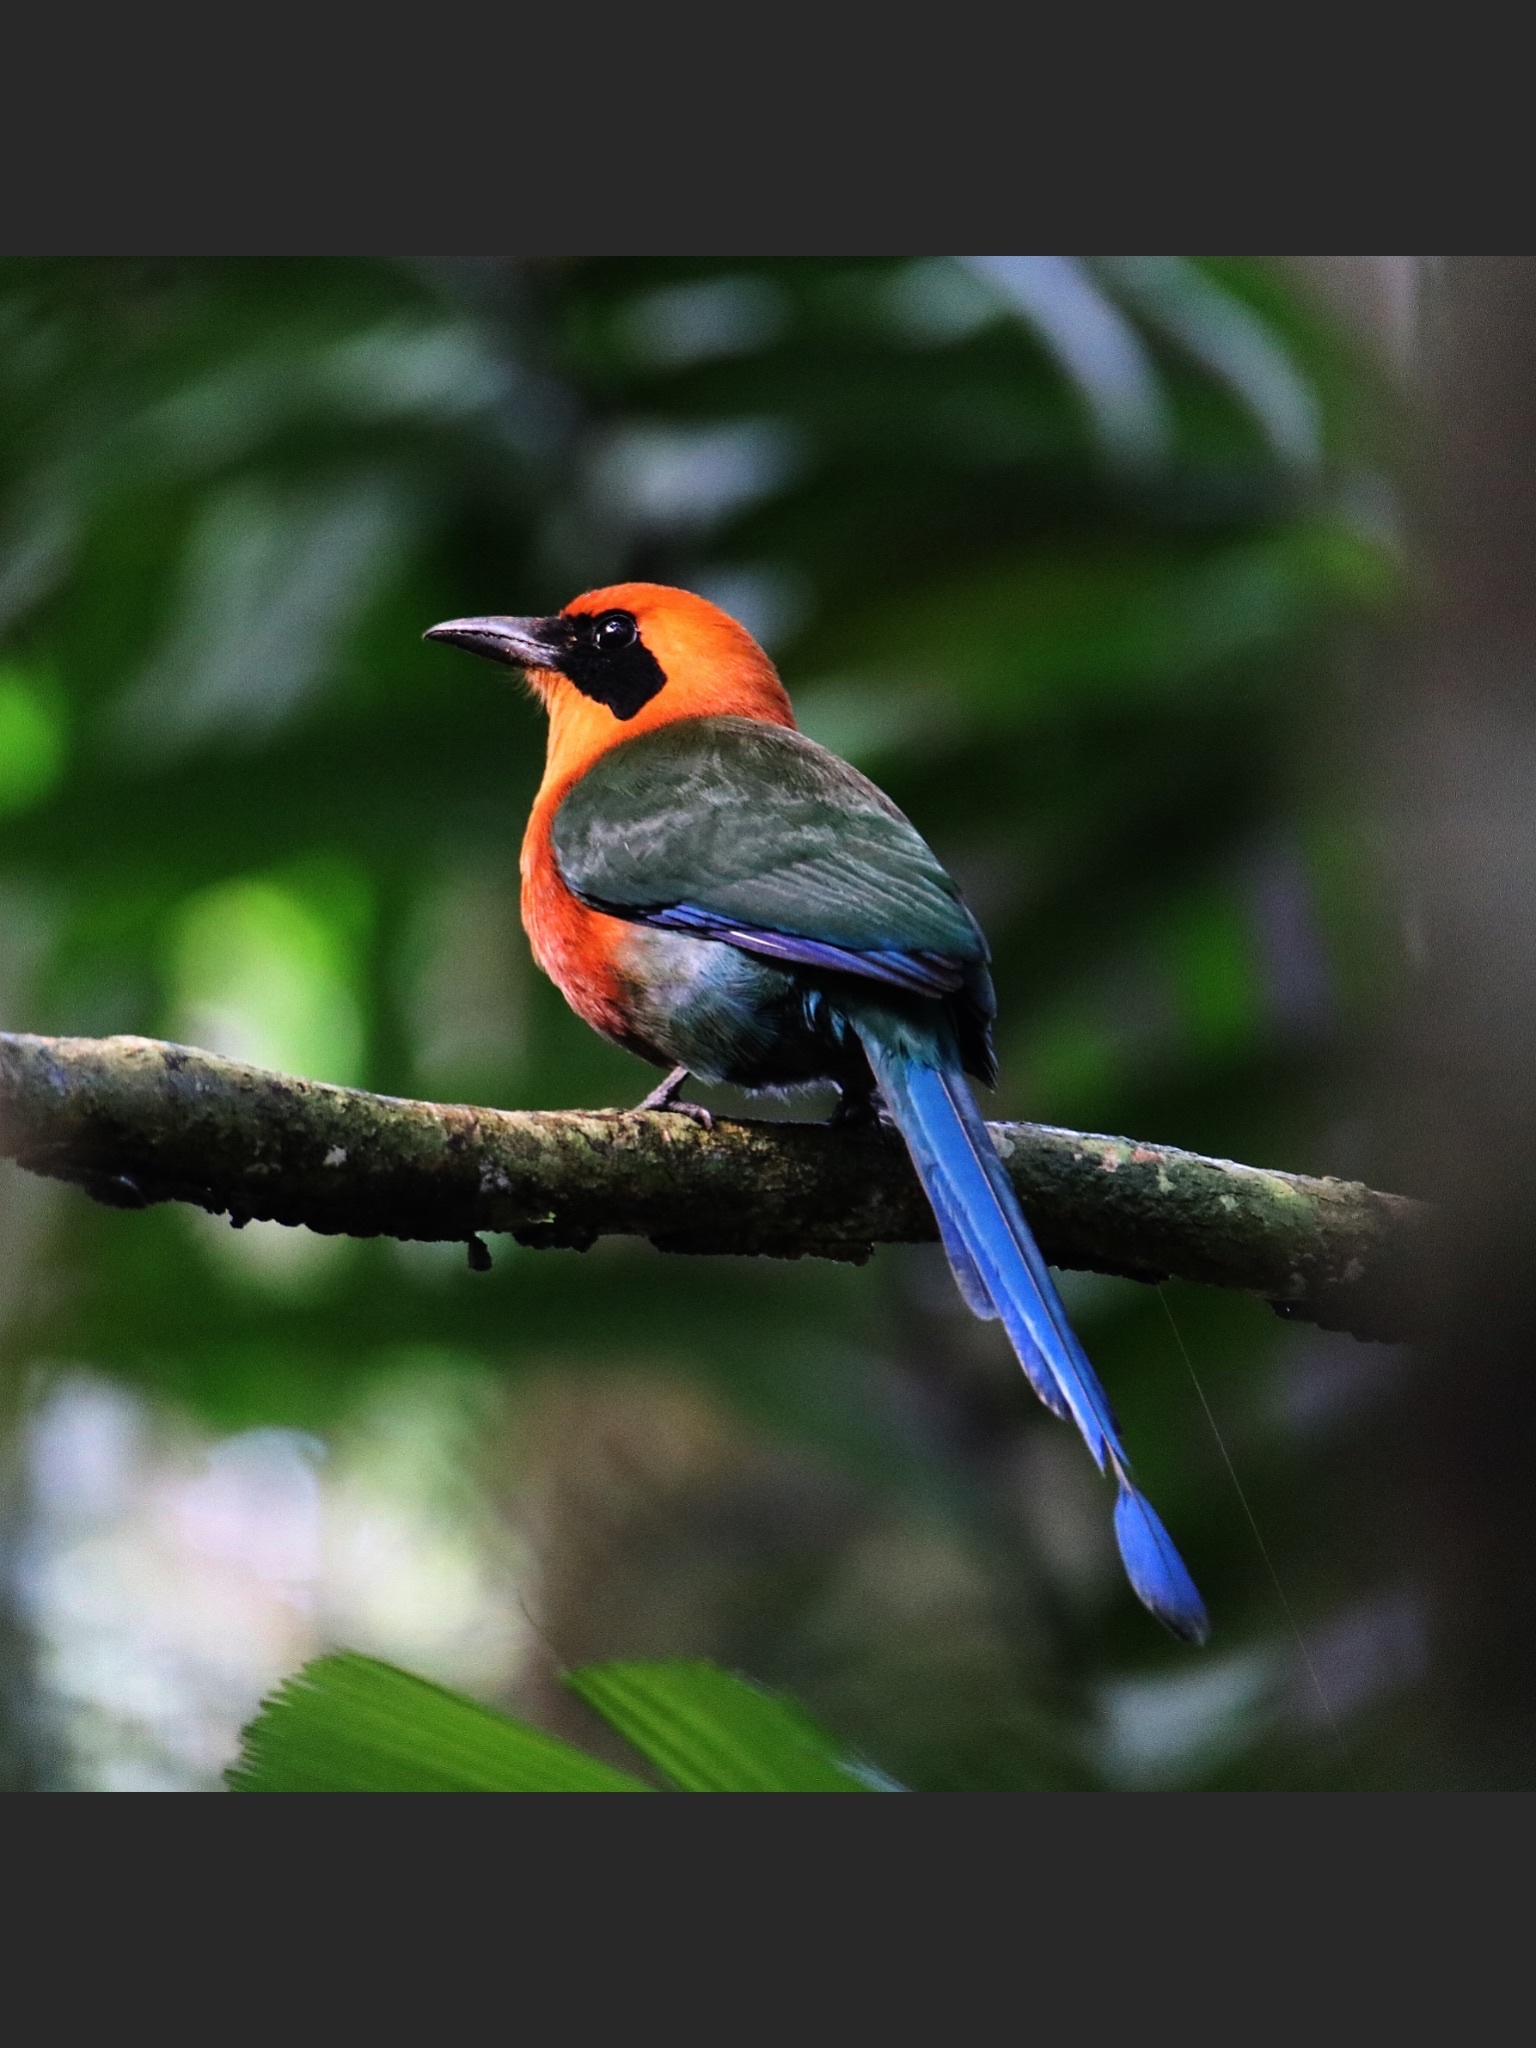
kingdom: Animalia
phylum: Chordata
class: Aves
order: Coraciiformes
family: Momotidae
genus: Baryphthengus
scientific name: Baryphthengus martii
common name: Rufous motmot
